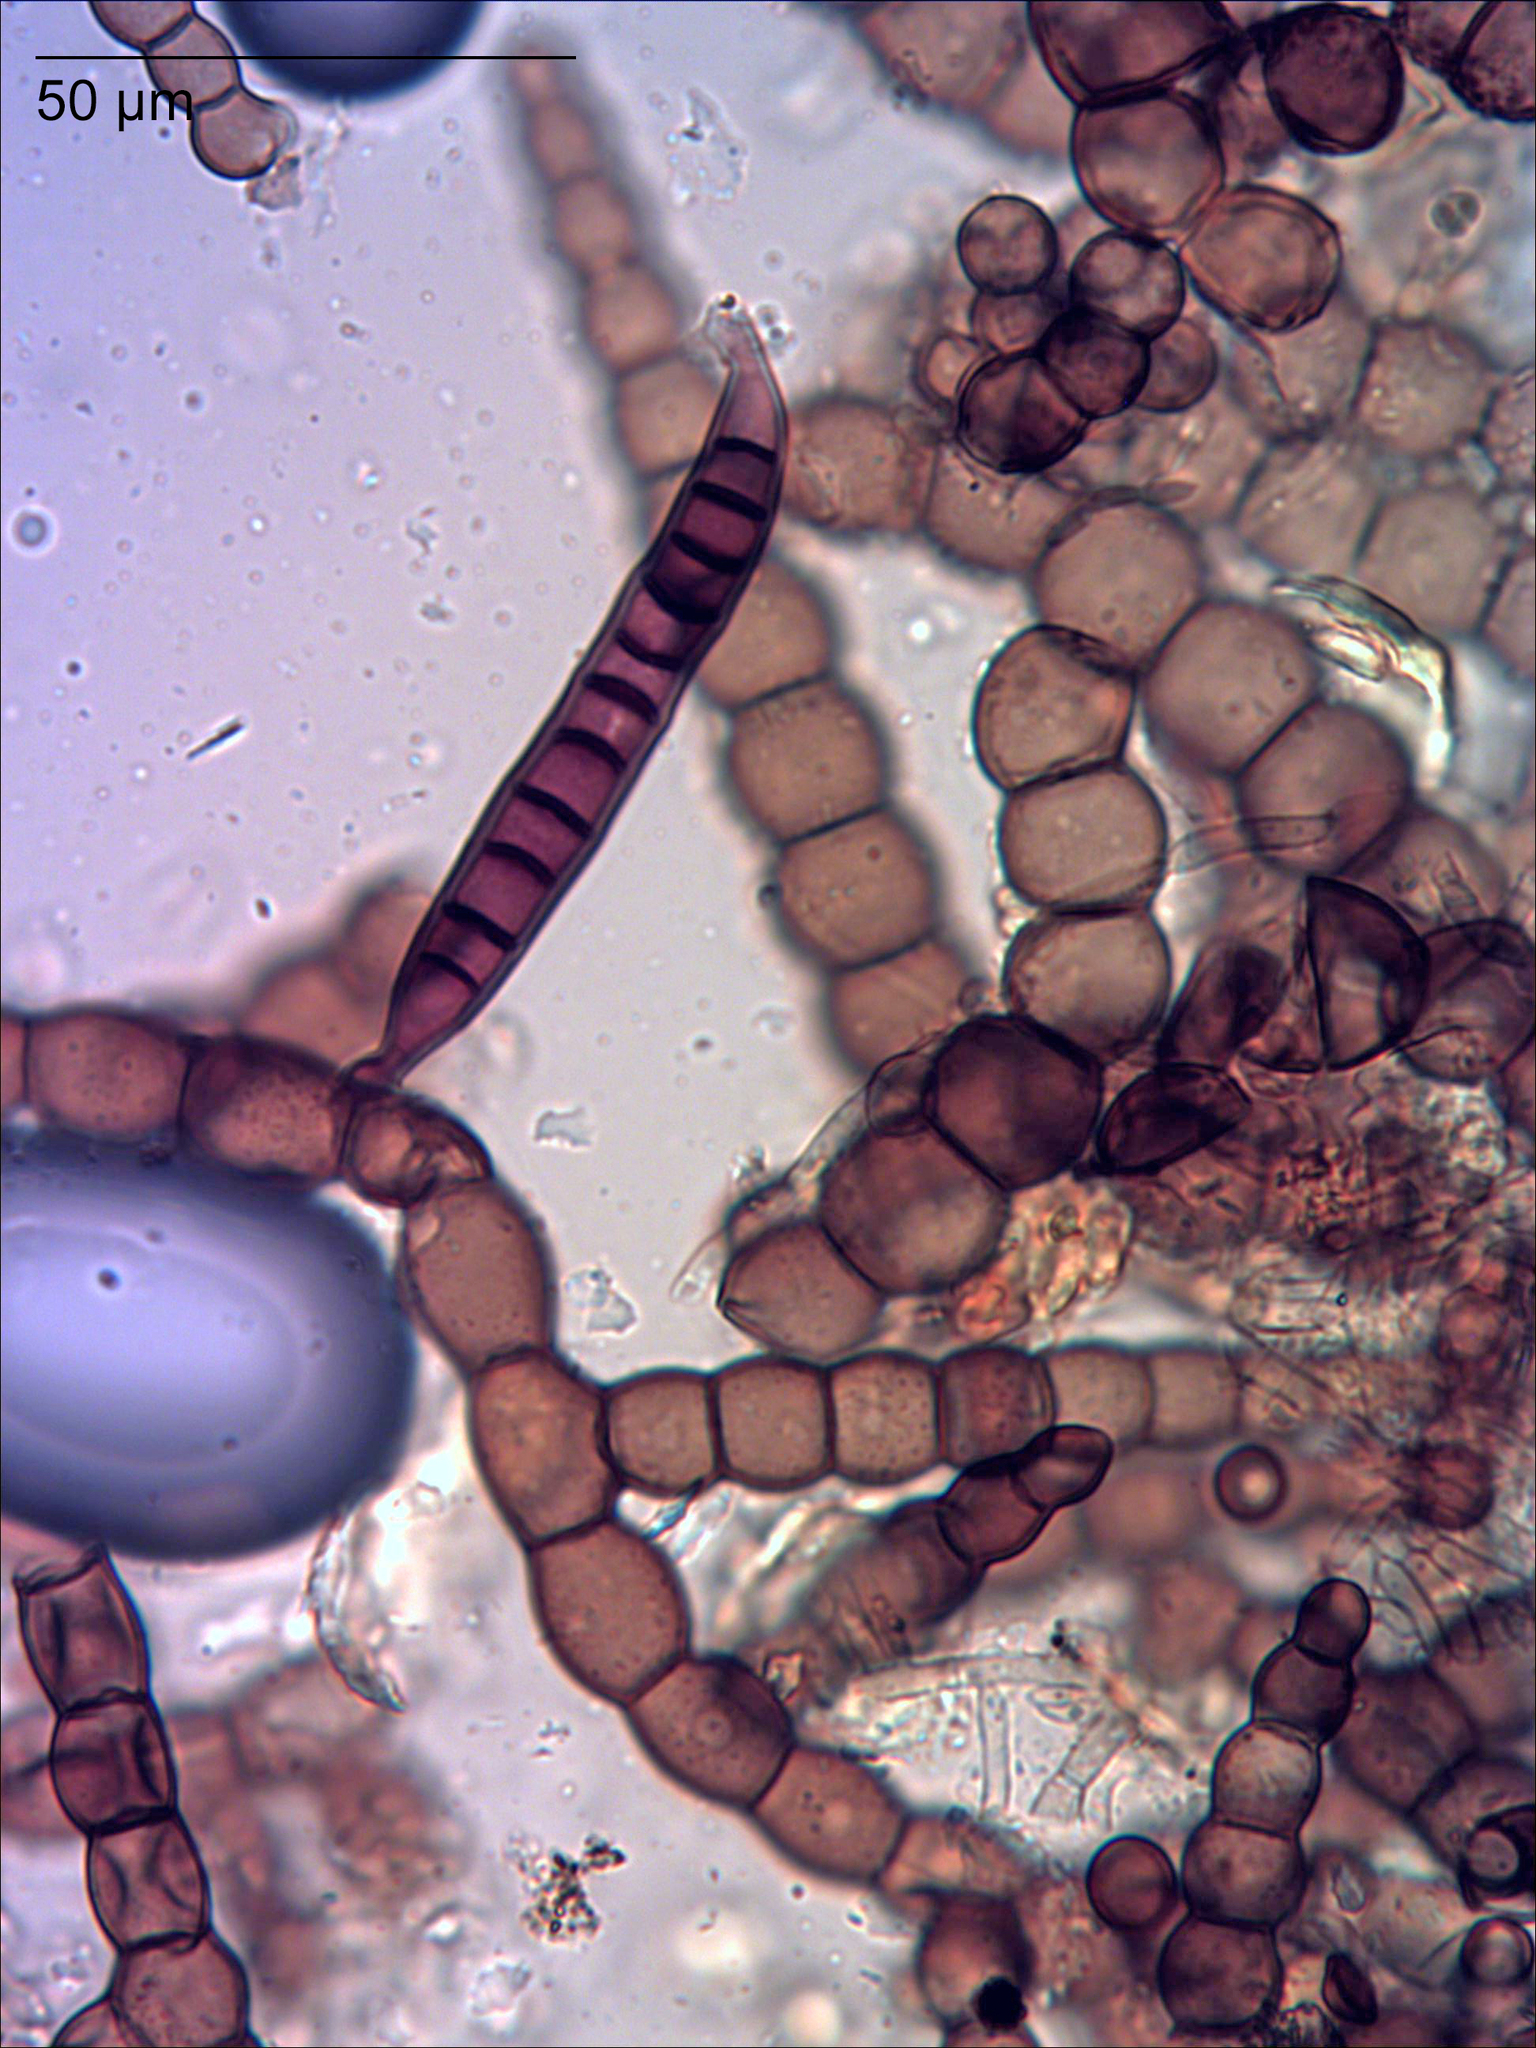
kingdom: Fungi
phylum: Ascomycota
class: Dothideomycetes
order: Capnodiales
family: Euantennariaceae
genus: Euantennaria
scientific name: Euantennaria caulicola
